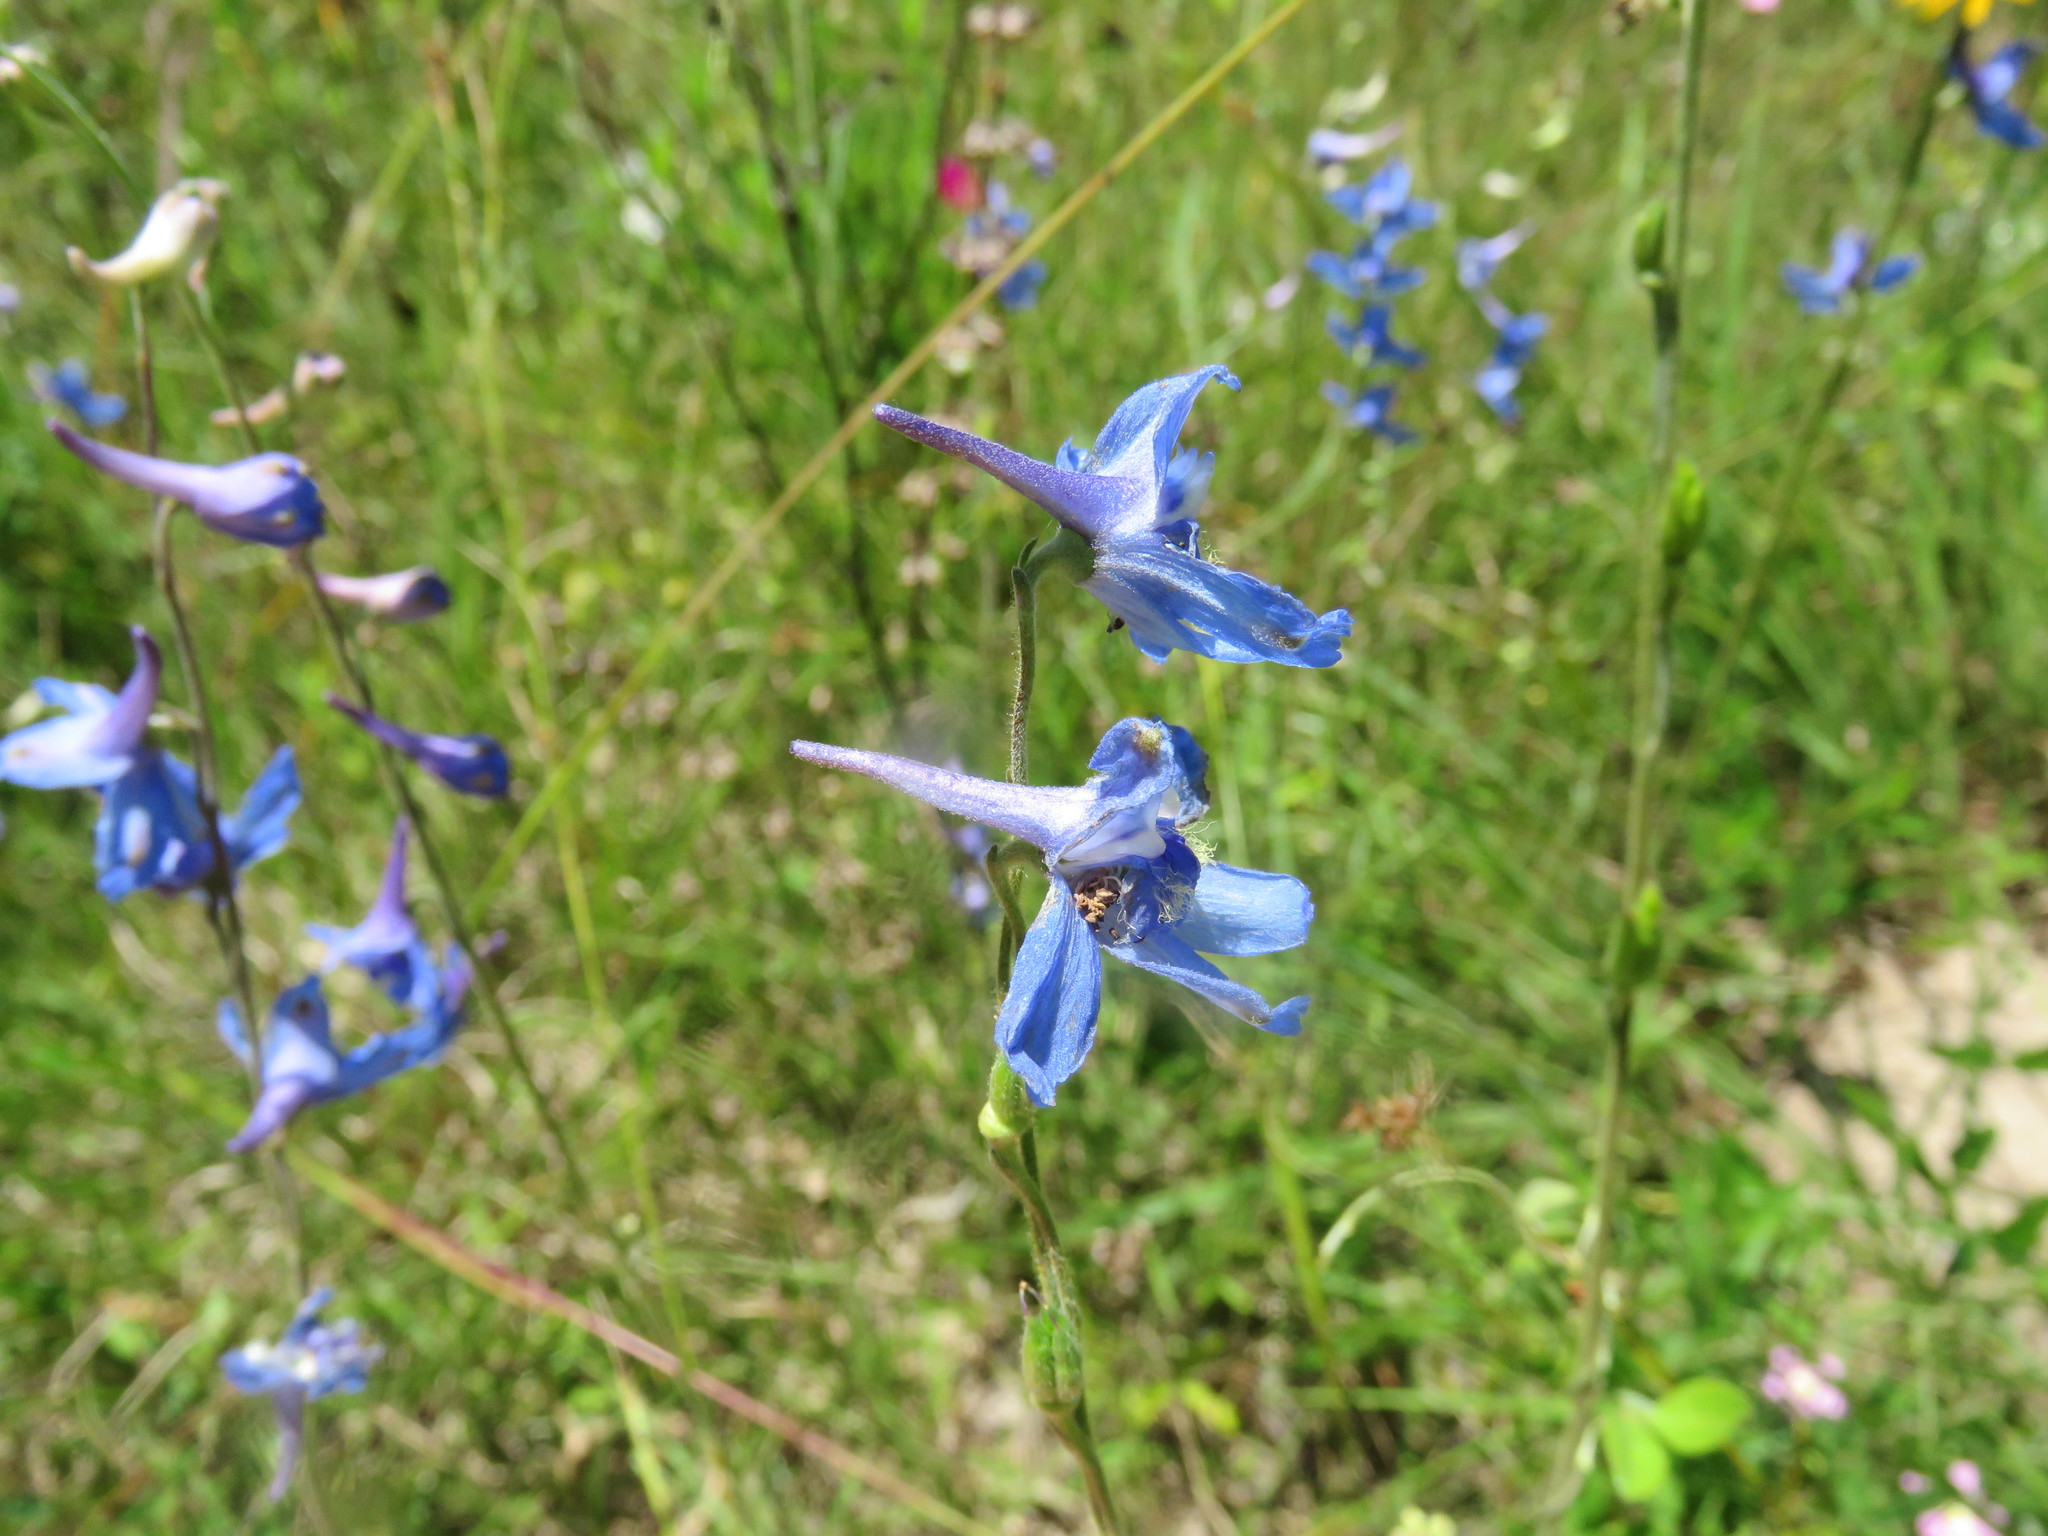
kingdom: Plantae
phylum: Tracheophyta
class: Magnoliopsida
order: Ranunculales
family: Ranunculaceae
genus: Delphinium
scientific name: Delphinium carolinianum
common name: Carolina larkspur
